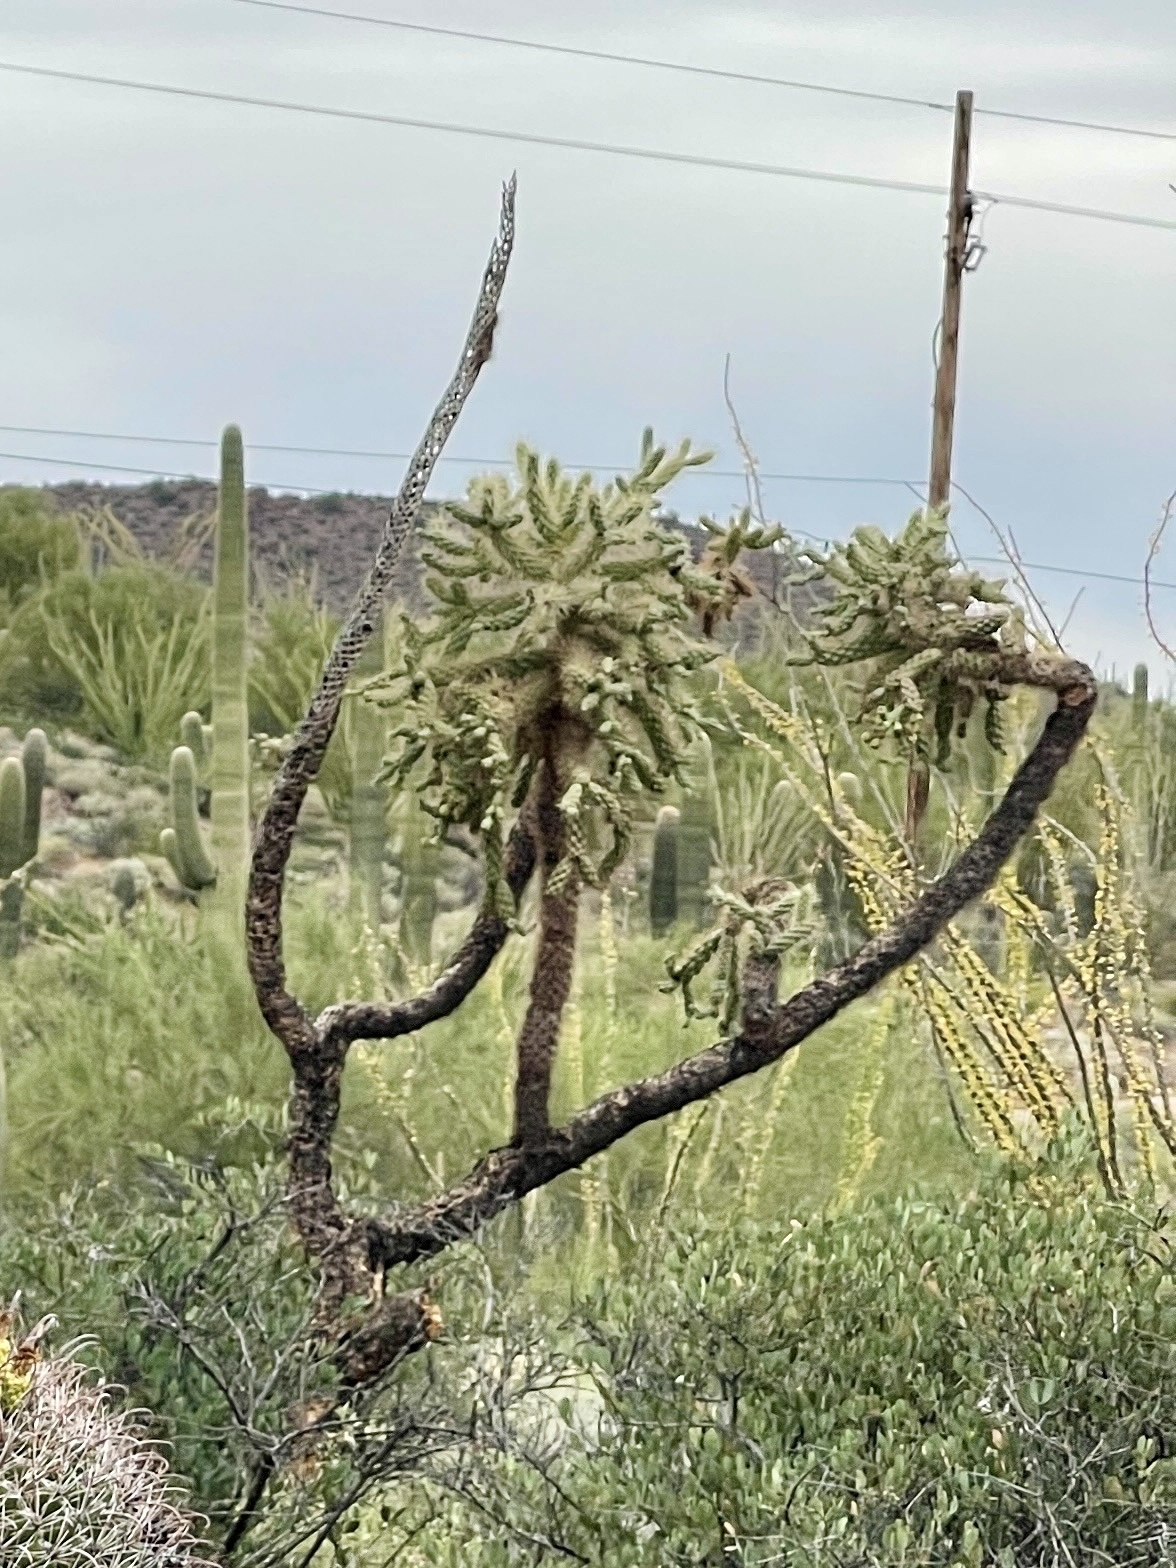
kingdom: Plantae
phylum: Tracheophyta
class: Magnoliopsida
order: Caryophyllales
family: Cactaceae
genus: Cylindropuntia
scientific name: Cylindropuntia fulgida
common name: Jumping cholla
